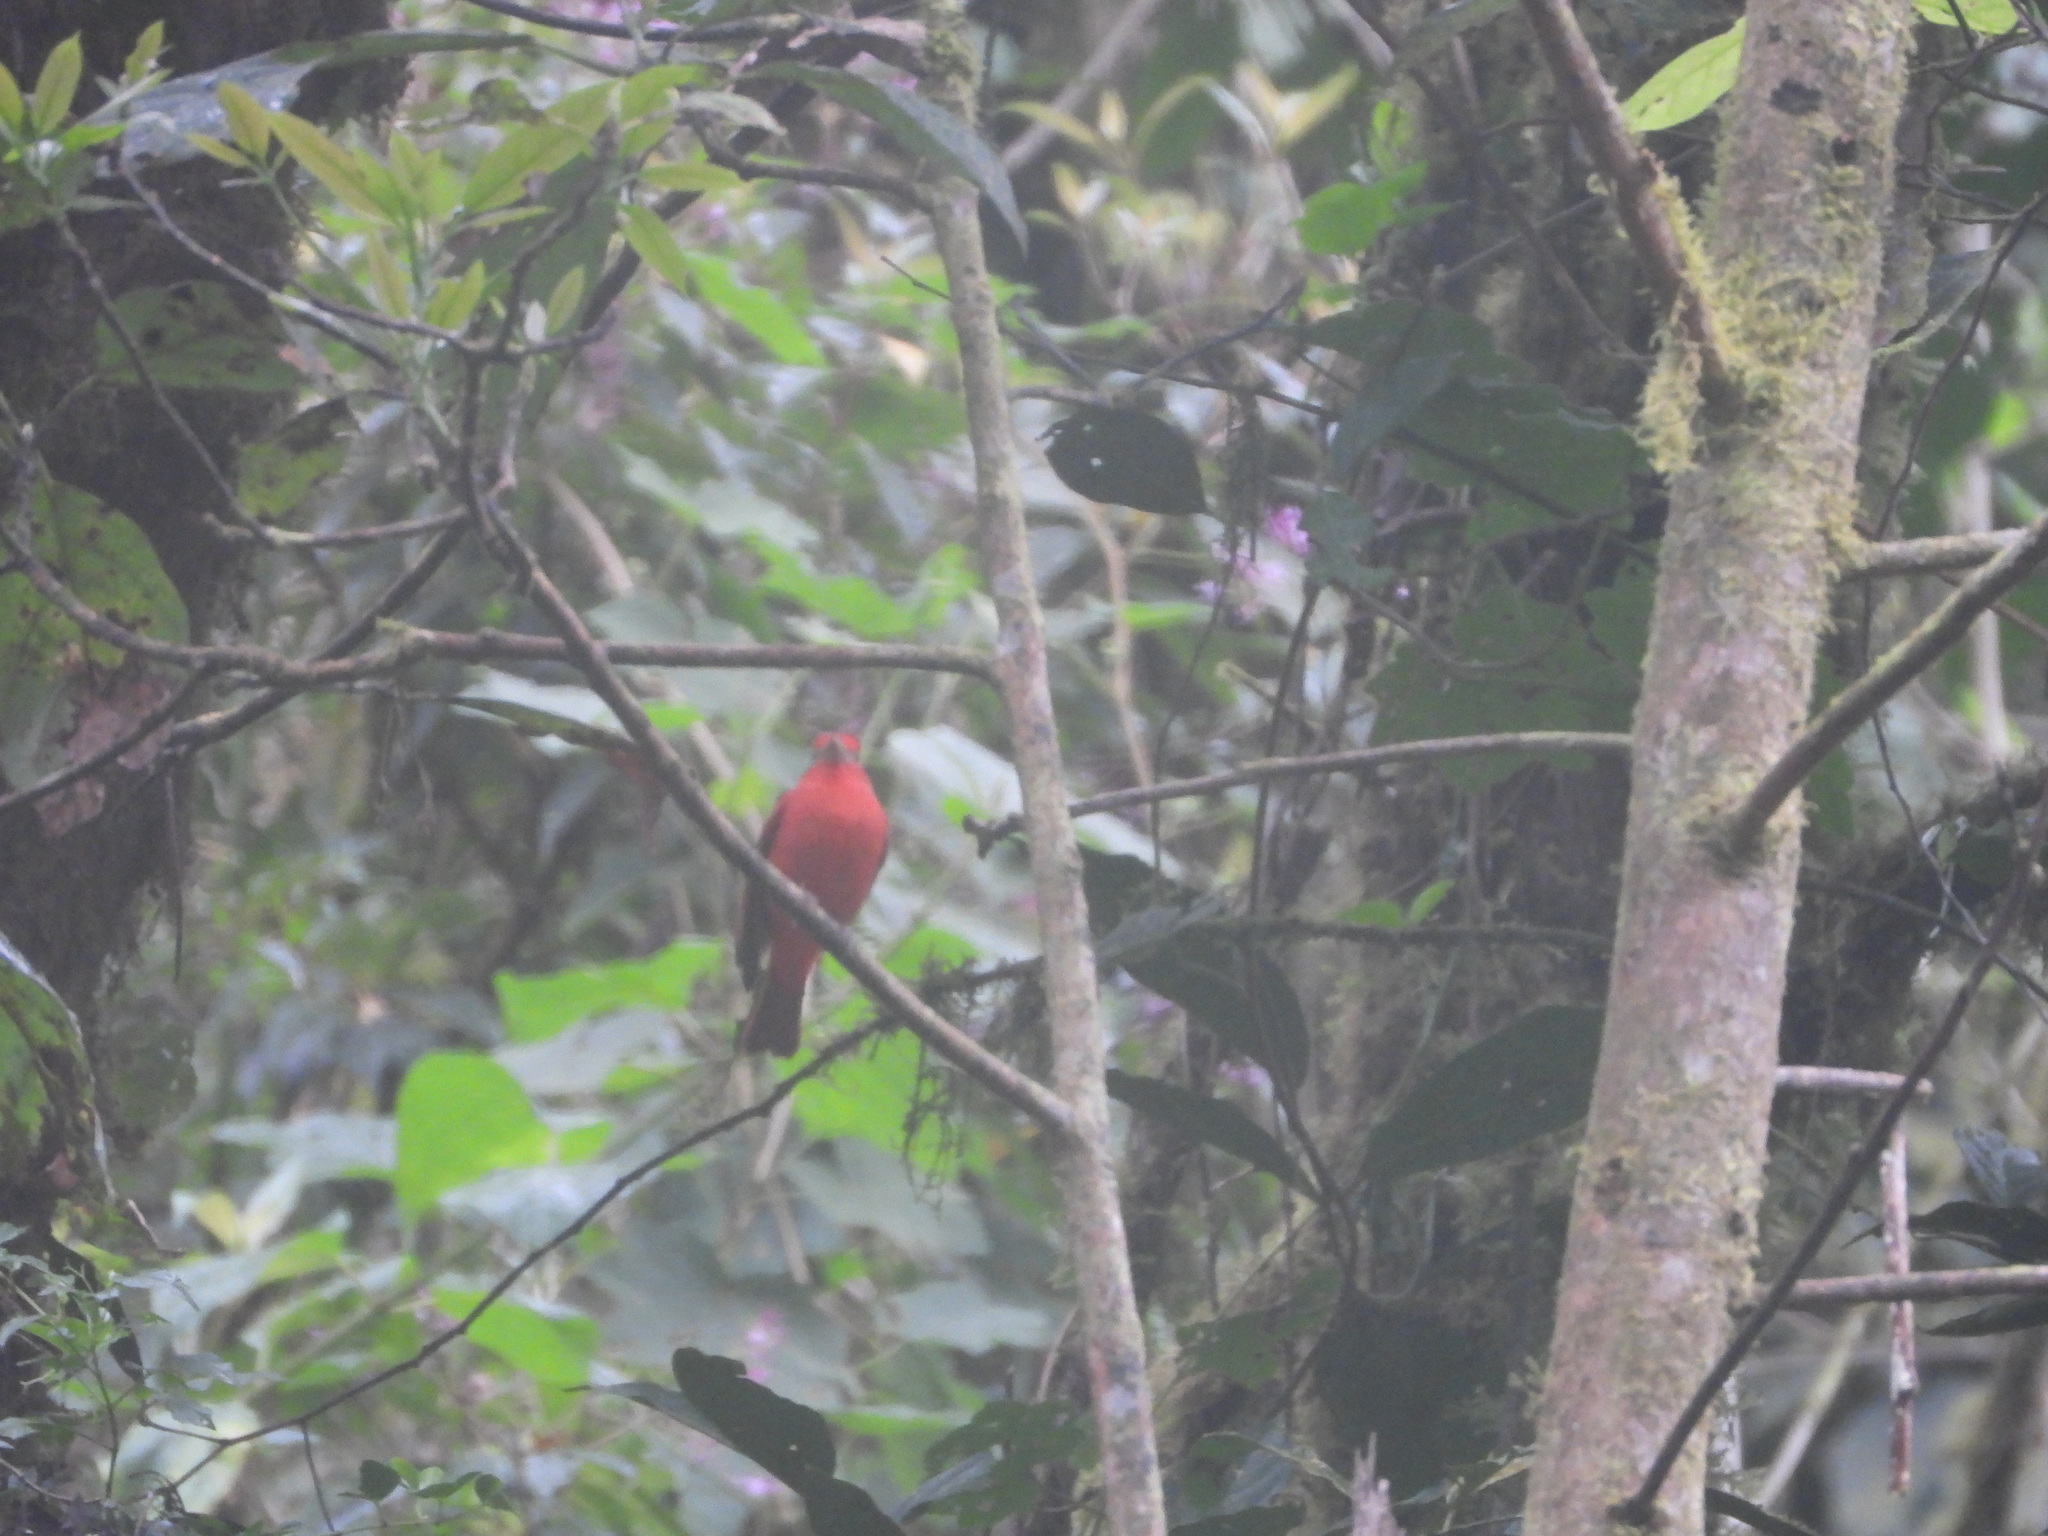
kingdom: Animalia
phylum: Chordata
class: Aves
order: Passeriformes
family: Cardinalidae
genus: Piranga
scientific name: Piranga rubra
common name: Summer tanager
